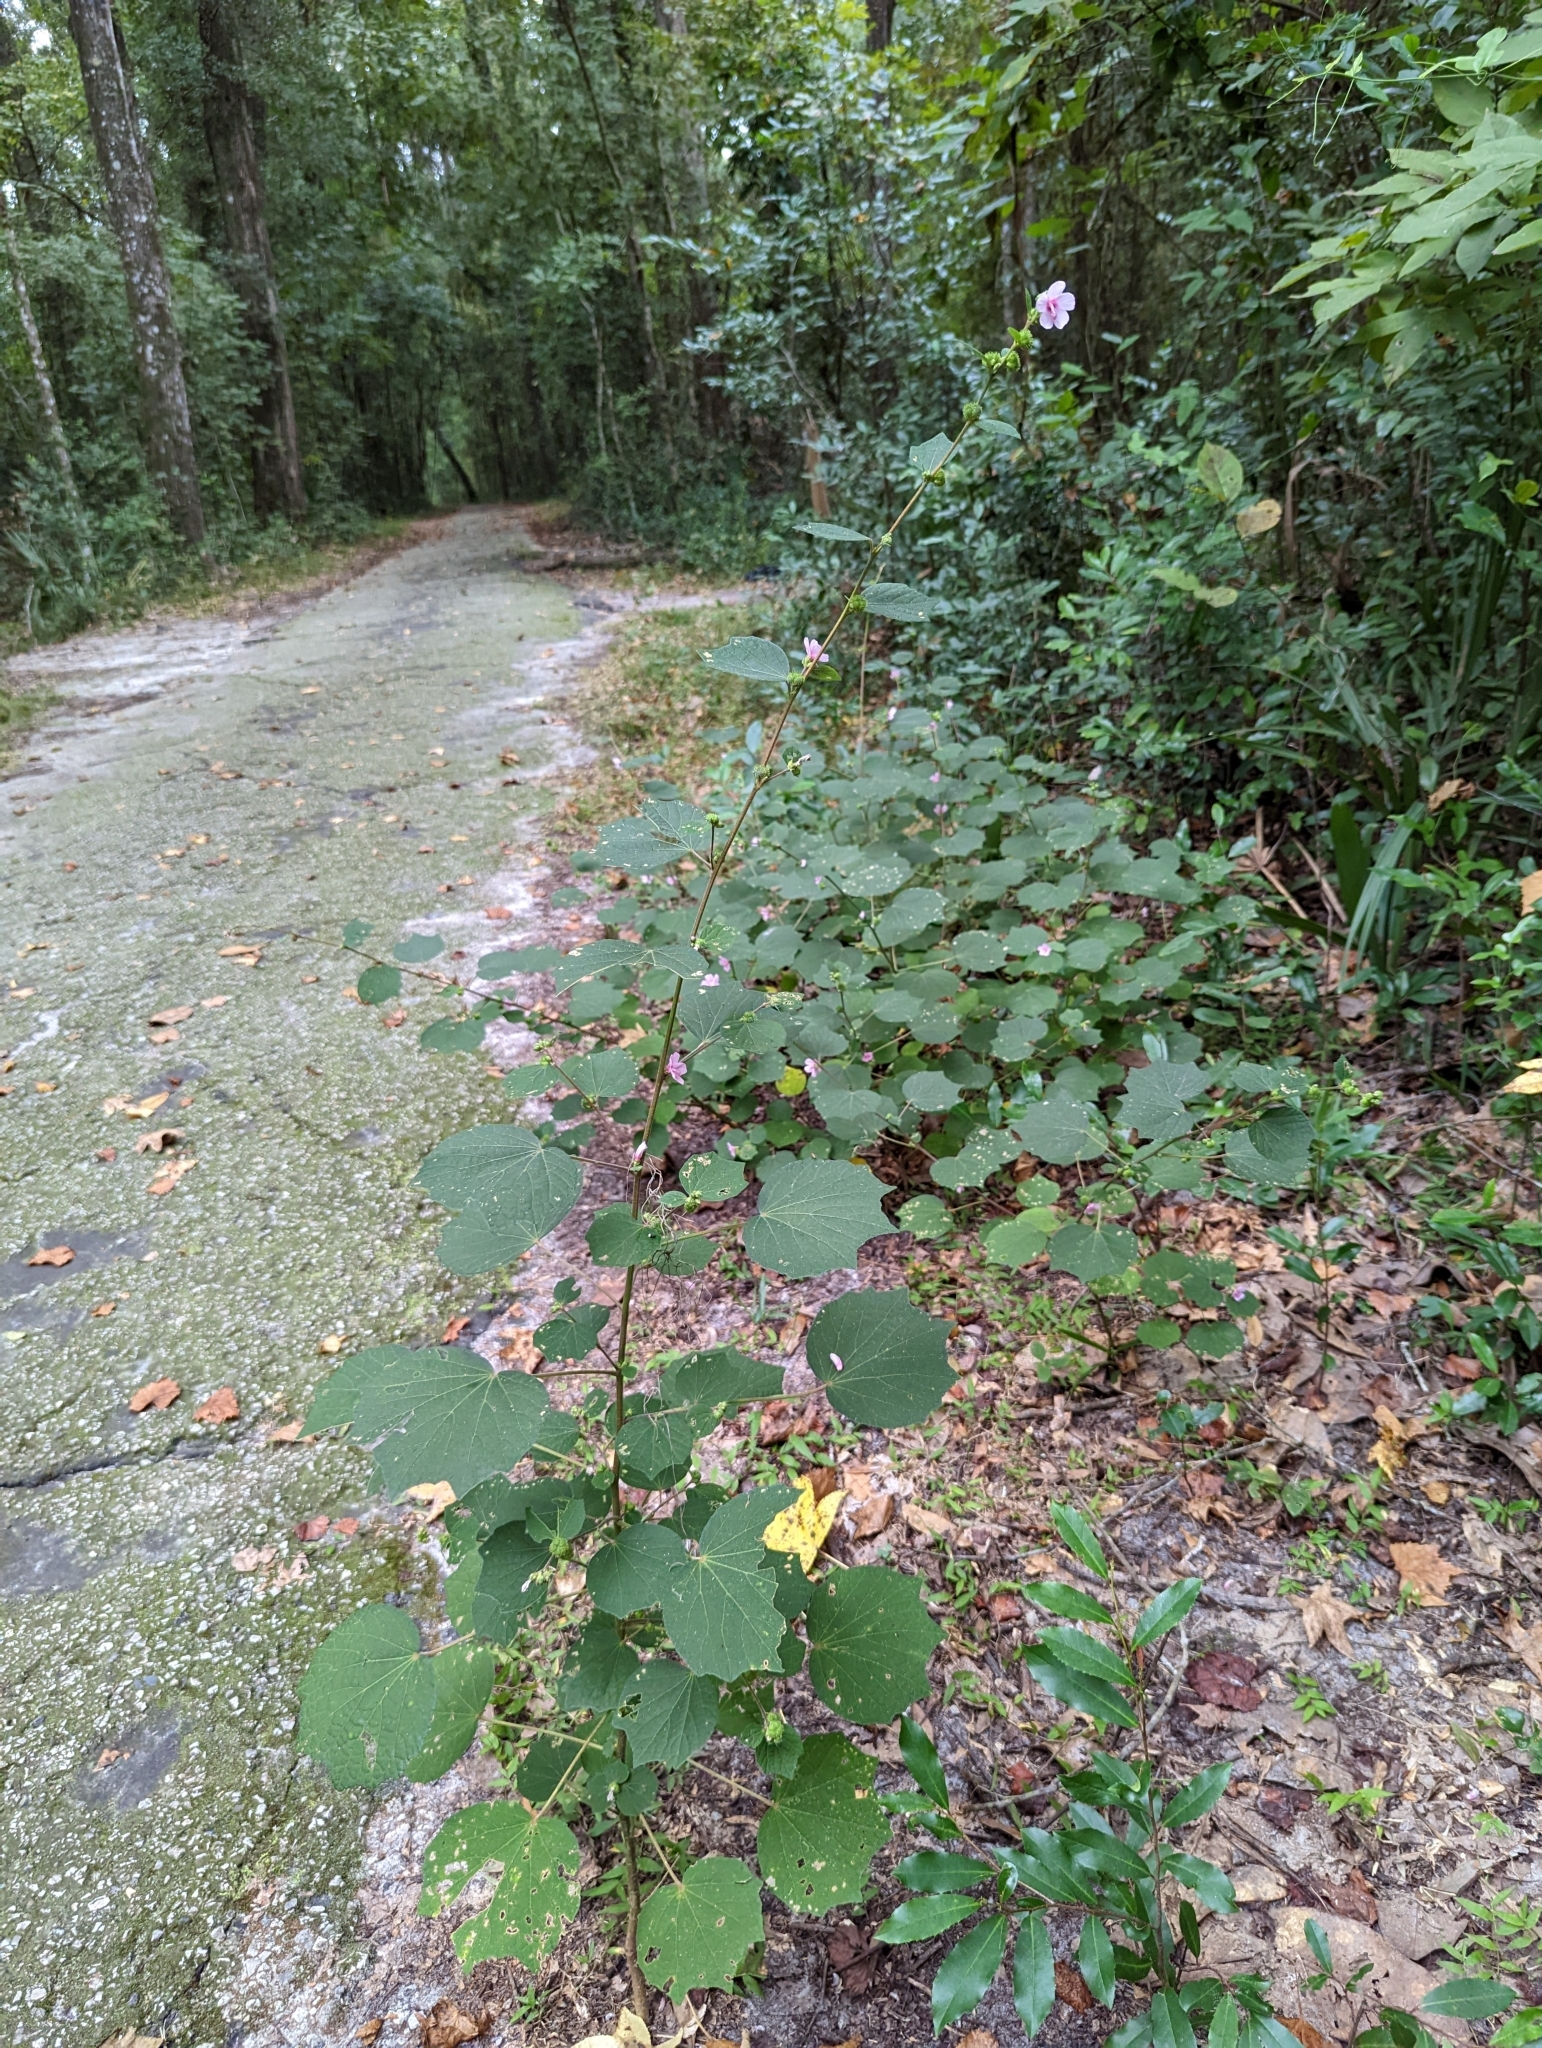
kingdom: Plantae
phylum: Tracheophyta
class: Magnoliopsida
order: Malvales
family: Malvaceae
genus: Urena
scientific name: Urena lobata
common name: Caesarweed
